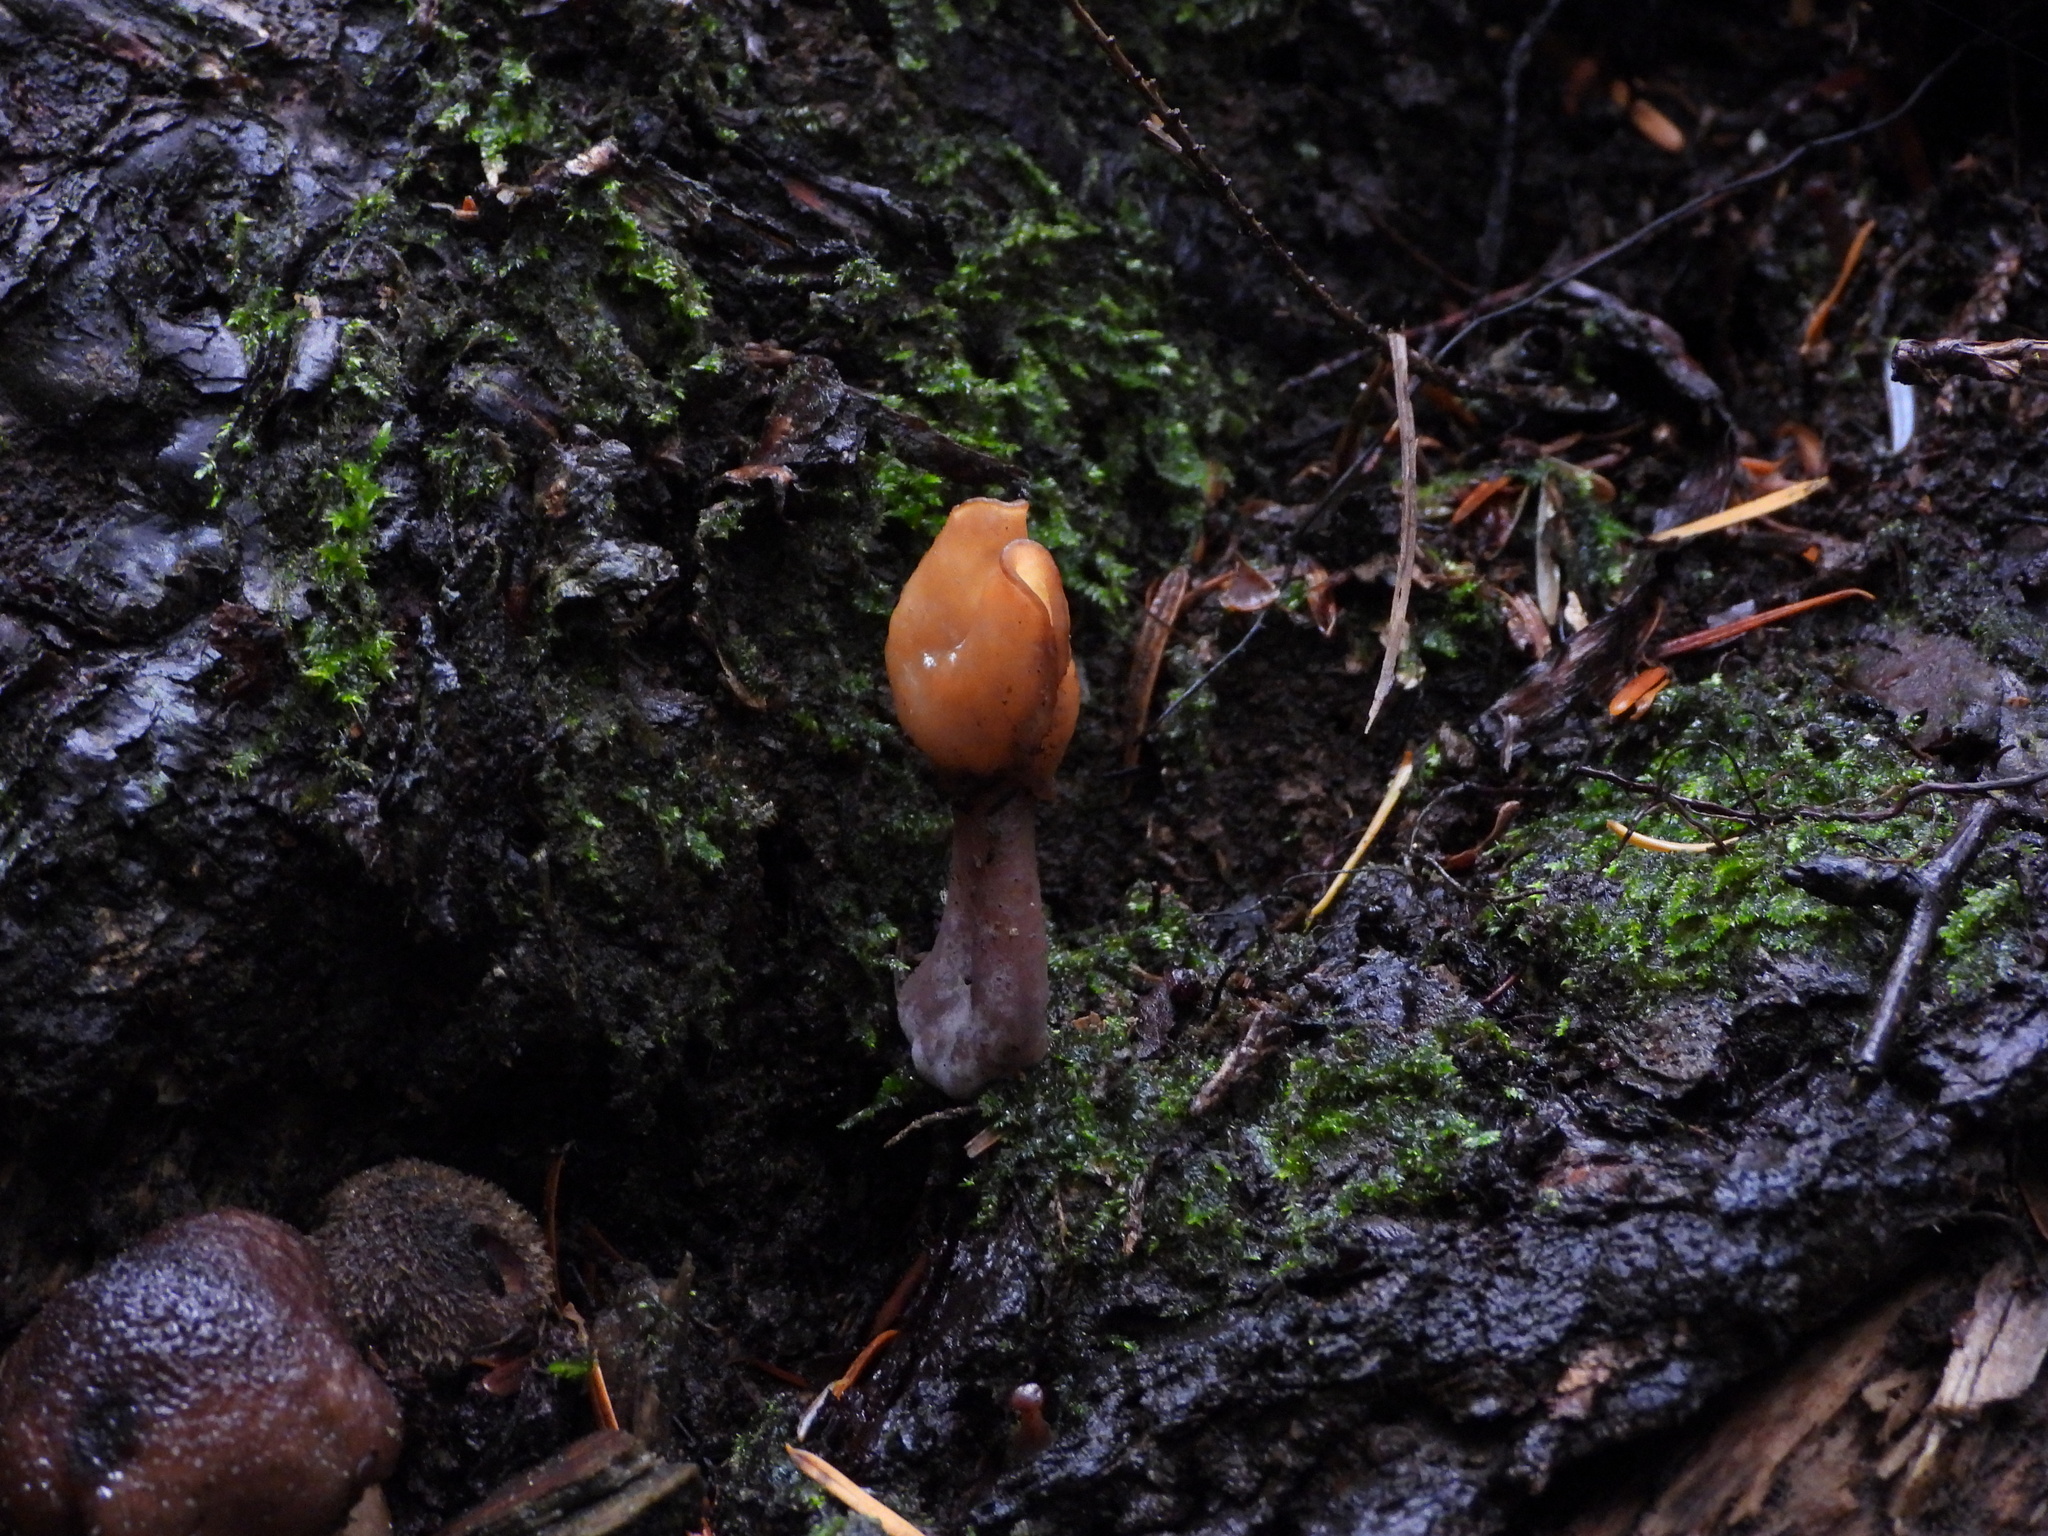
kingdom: Fungi
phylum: Ascomycota
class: Pezizomycetes
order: Pezizales
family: Discinaceae
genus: Gyromitra
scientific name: Gyromitra infula
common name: Pouched false morel
